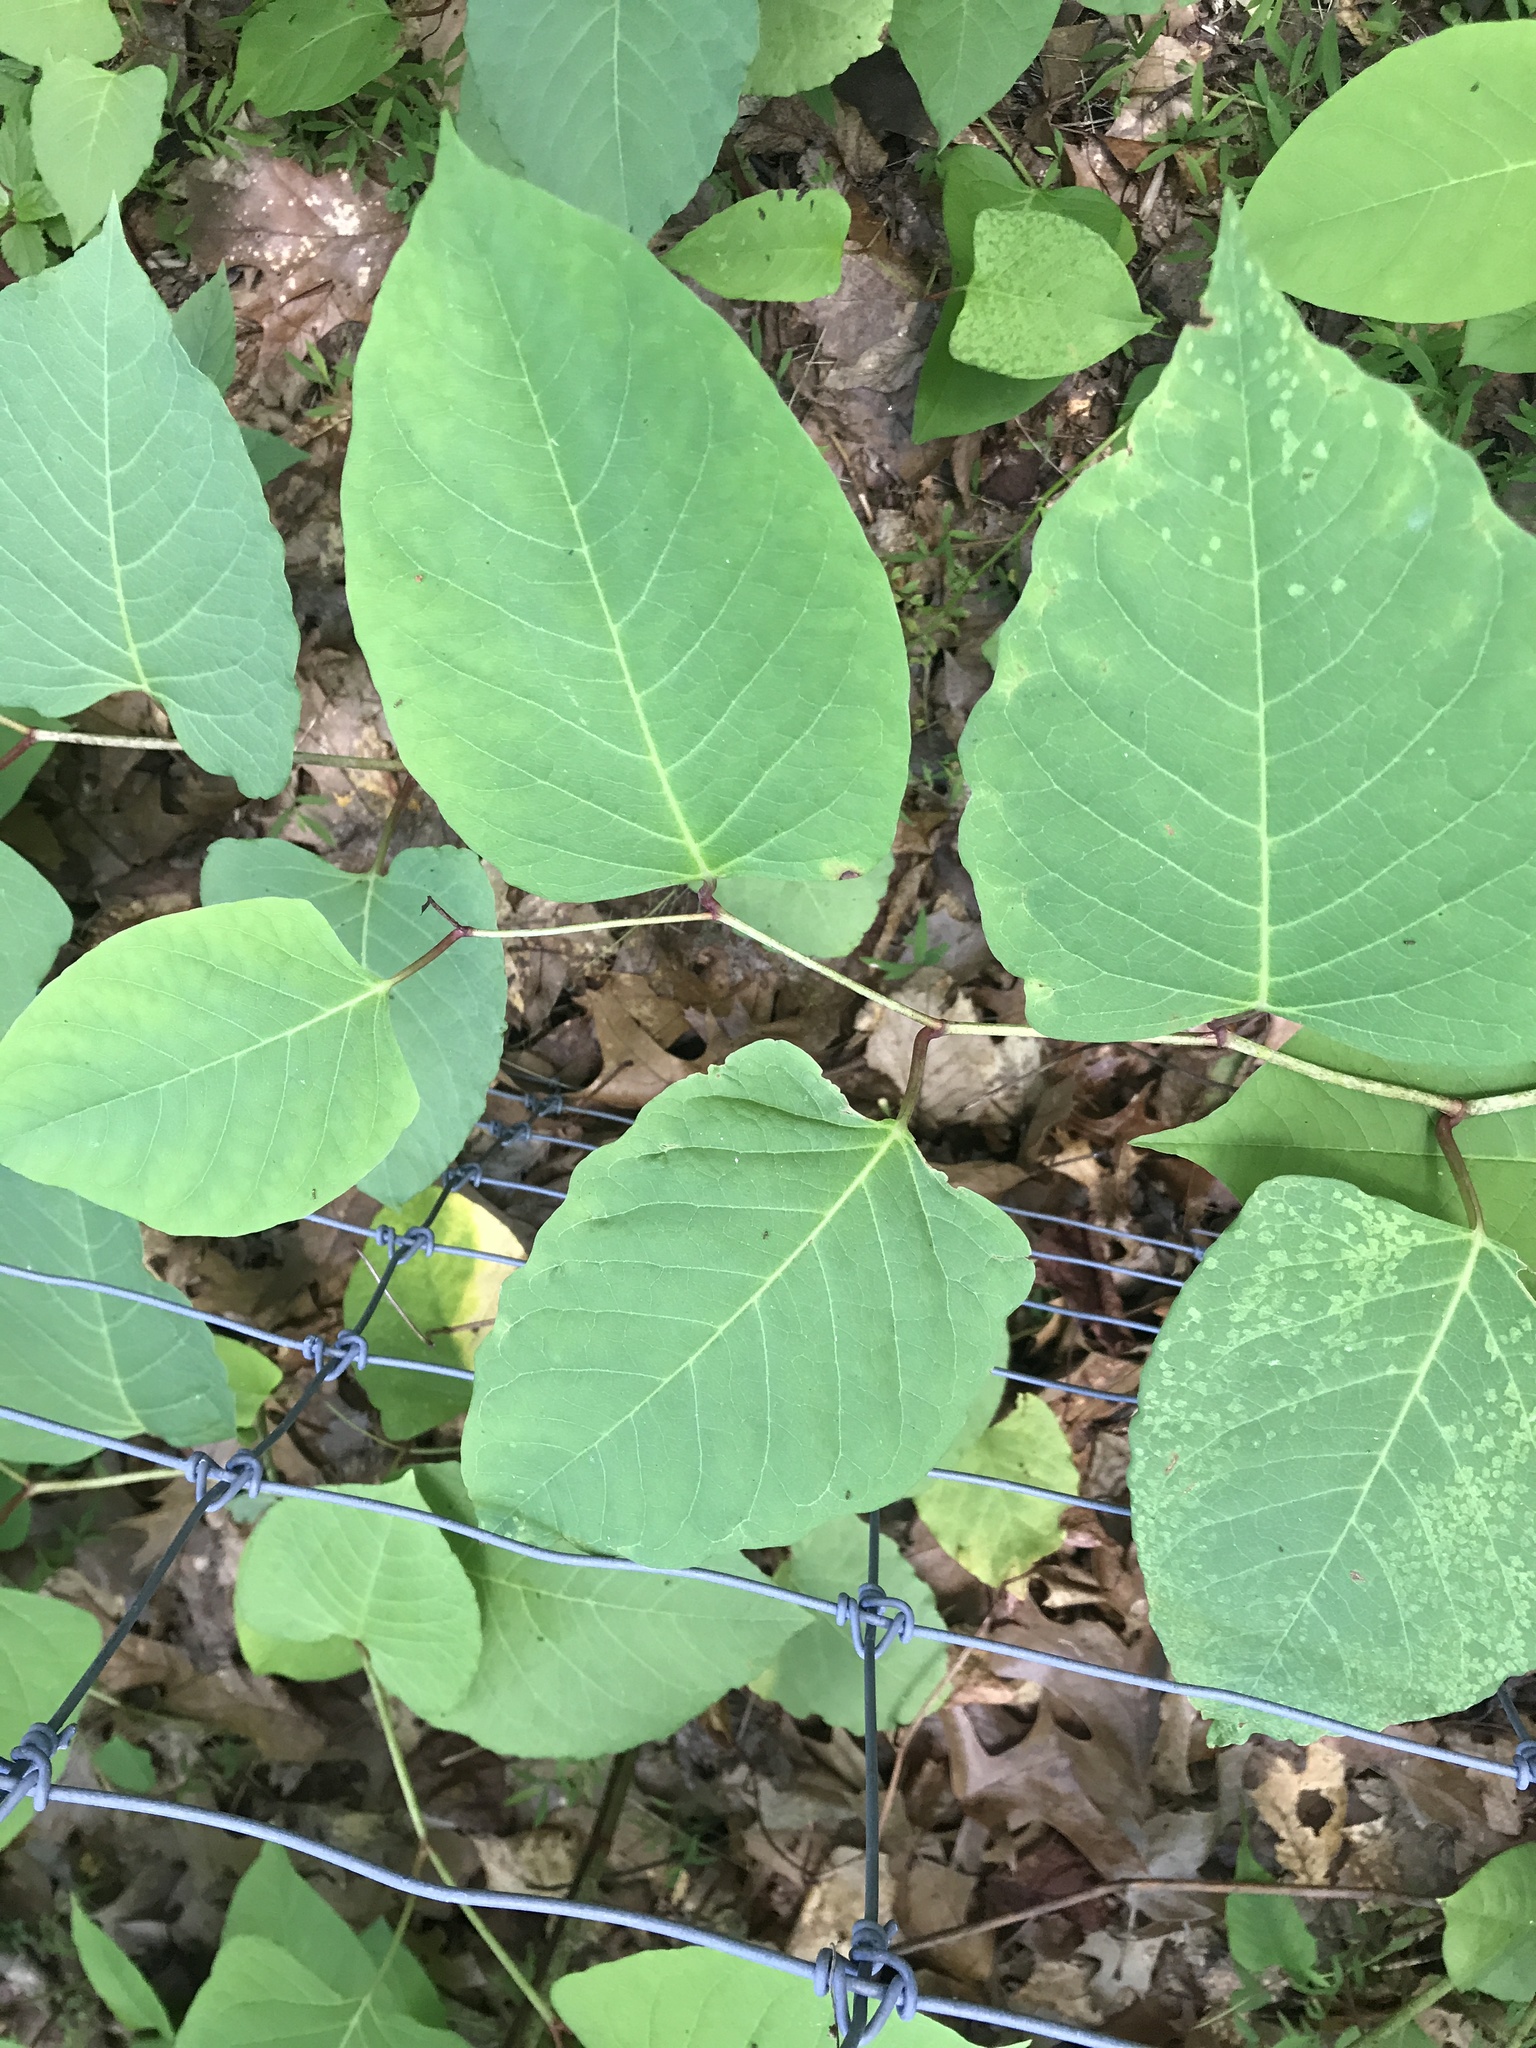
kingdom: Plantae
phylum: Tracheophyta
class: Magnoliopsida
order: Caryophyllales
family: Polygonaceae
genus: Reynoutria
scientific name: Reynoutria japonica
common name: Japanese knotweed
